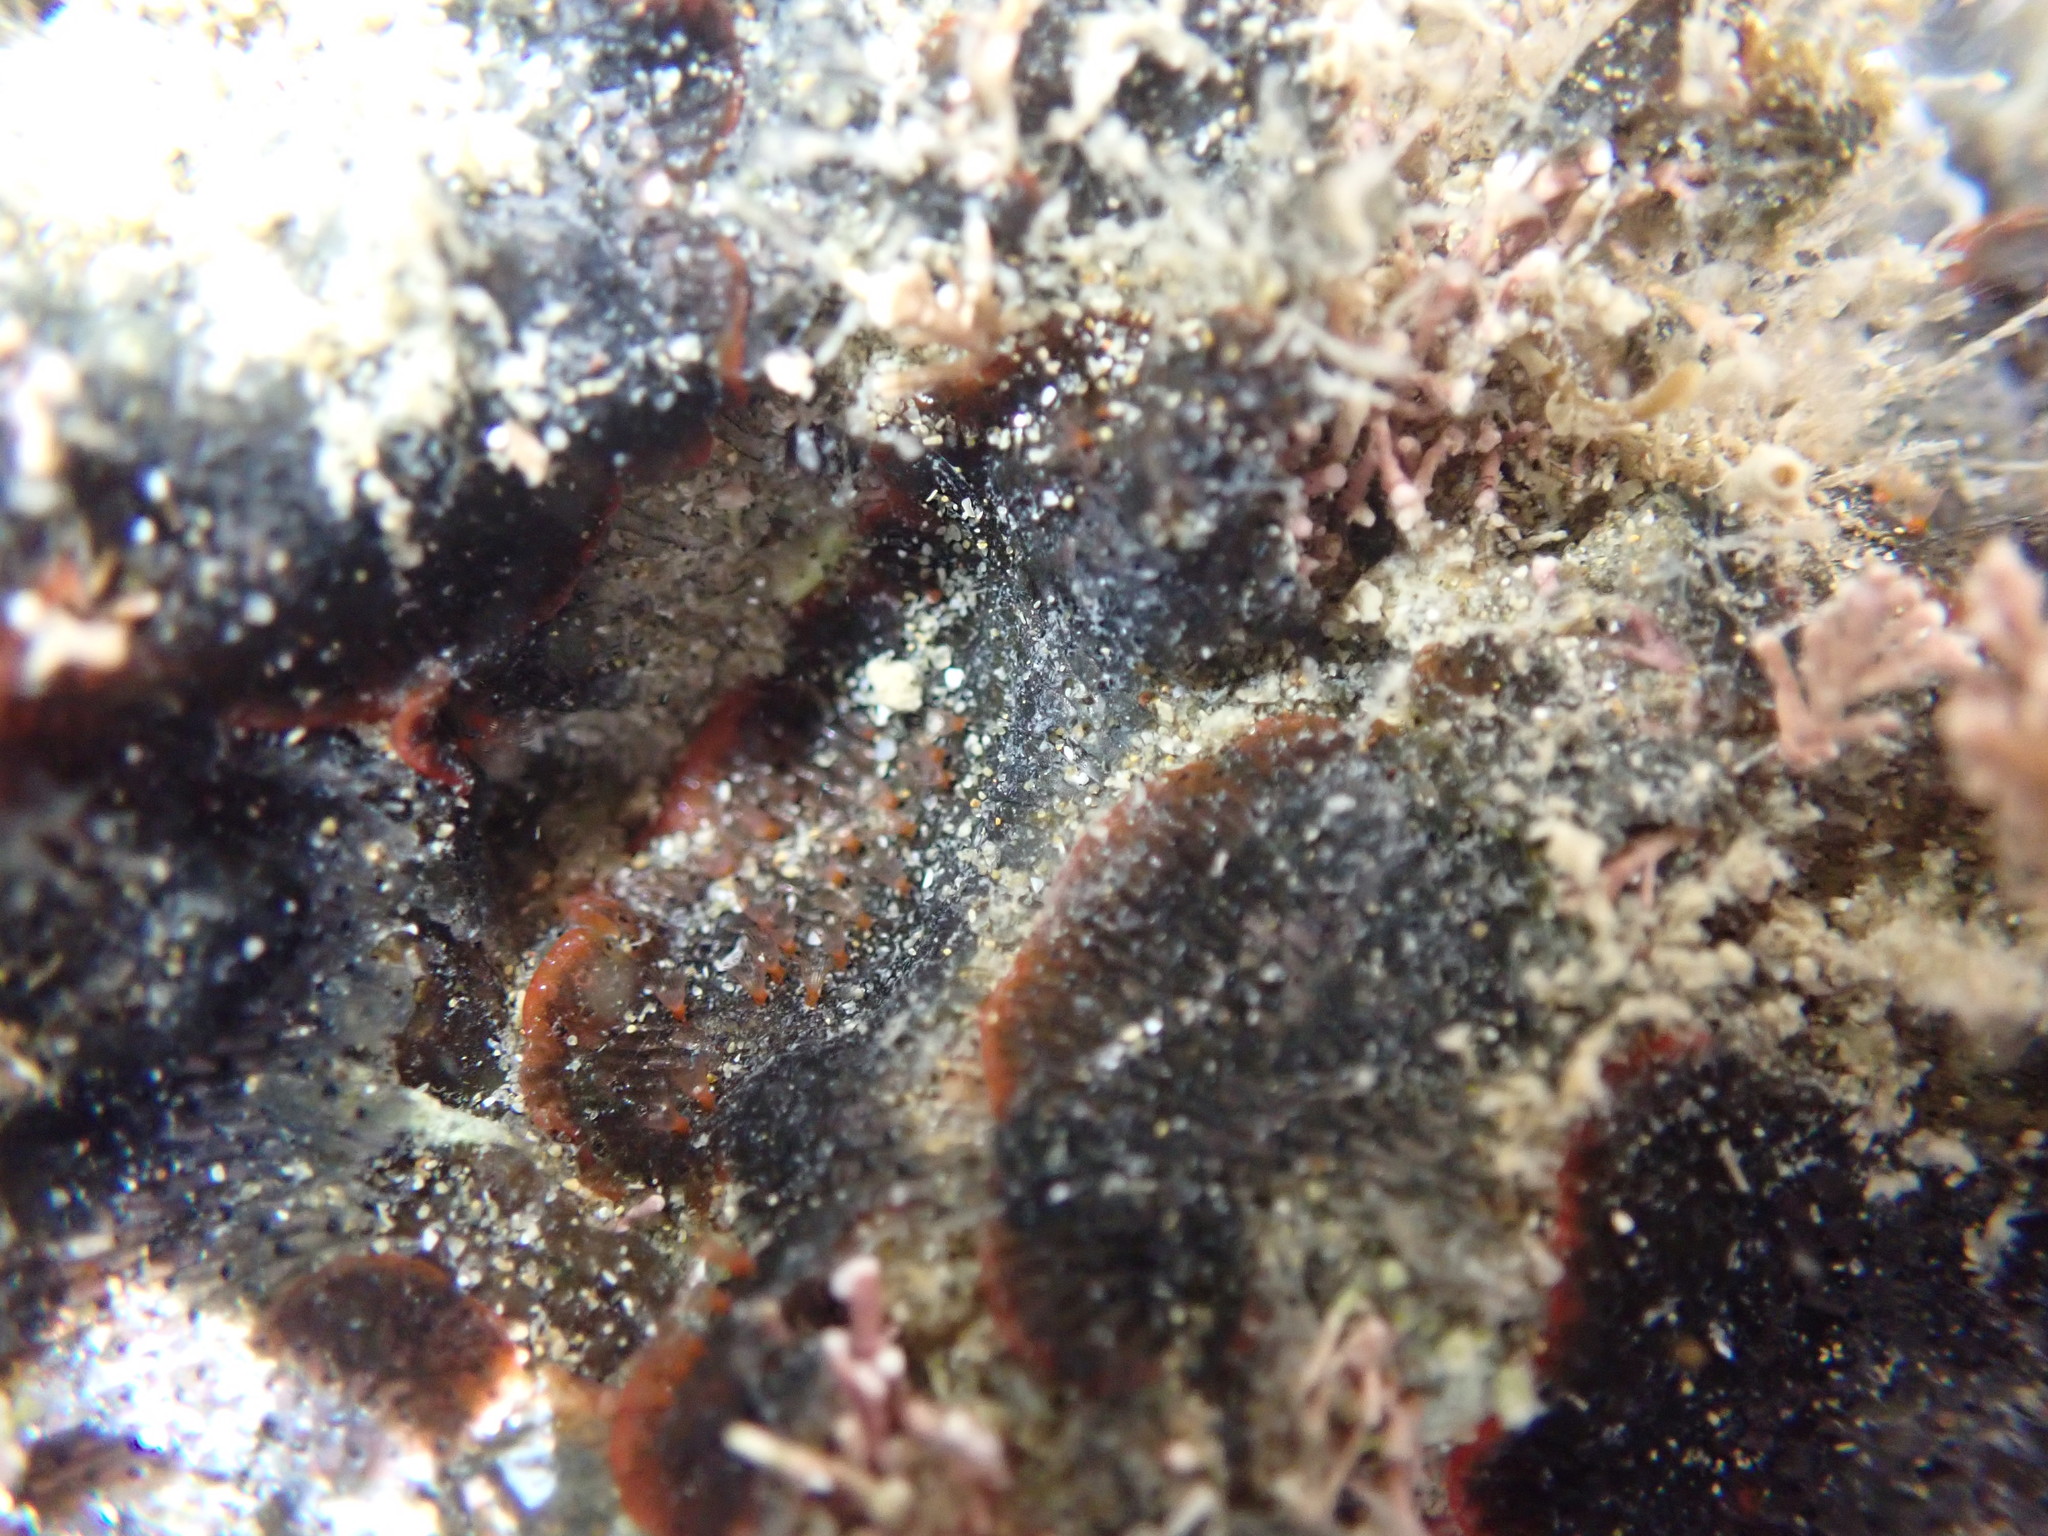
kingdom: Animalia
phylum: Bryozoa
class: Gymnolaemata
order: Cheilostomatida
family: Watersiporidae
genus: Watersipora
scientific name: Watersipora subatra
